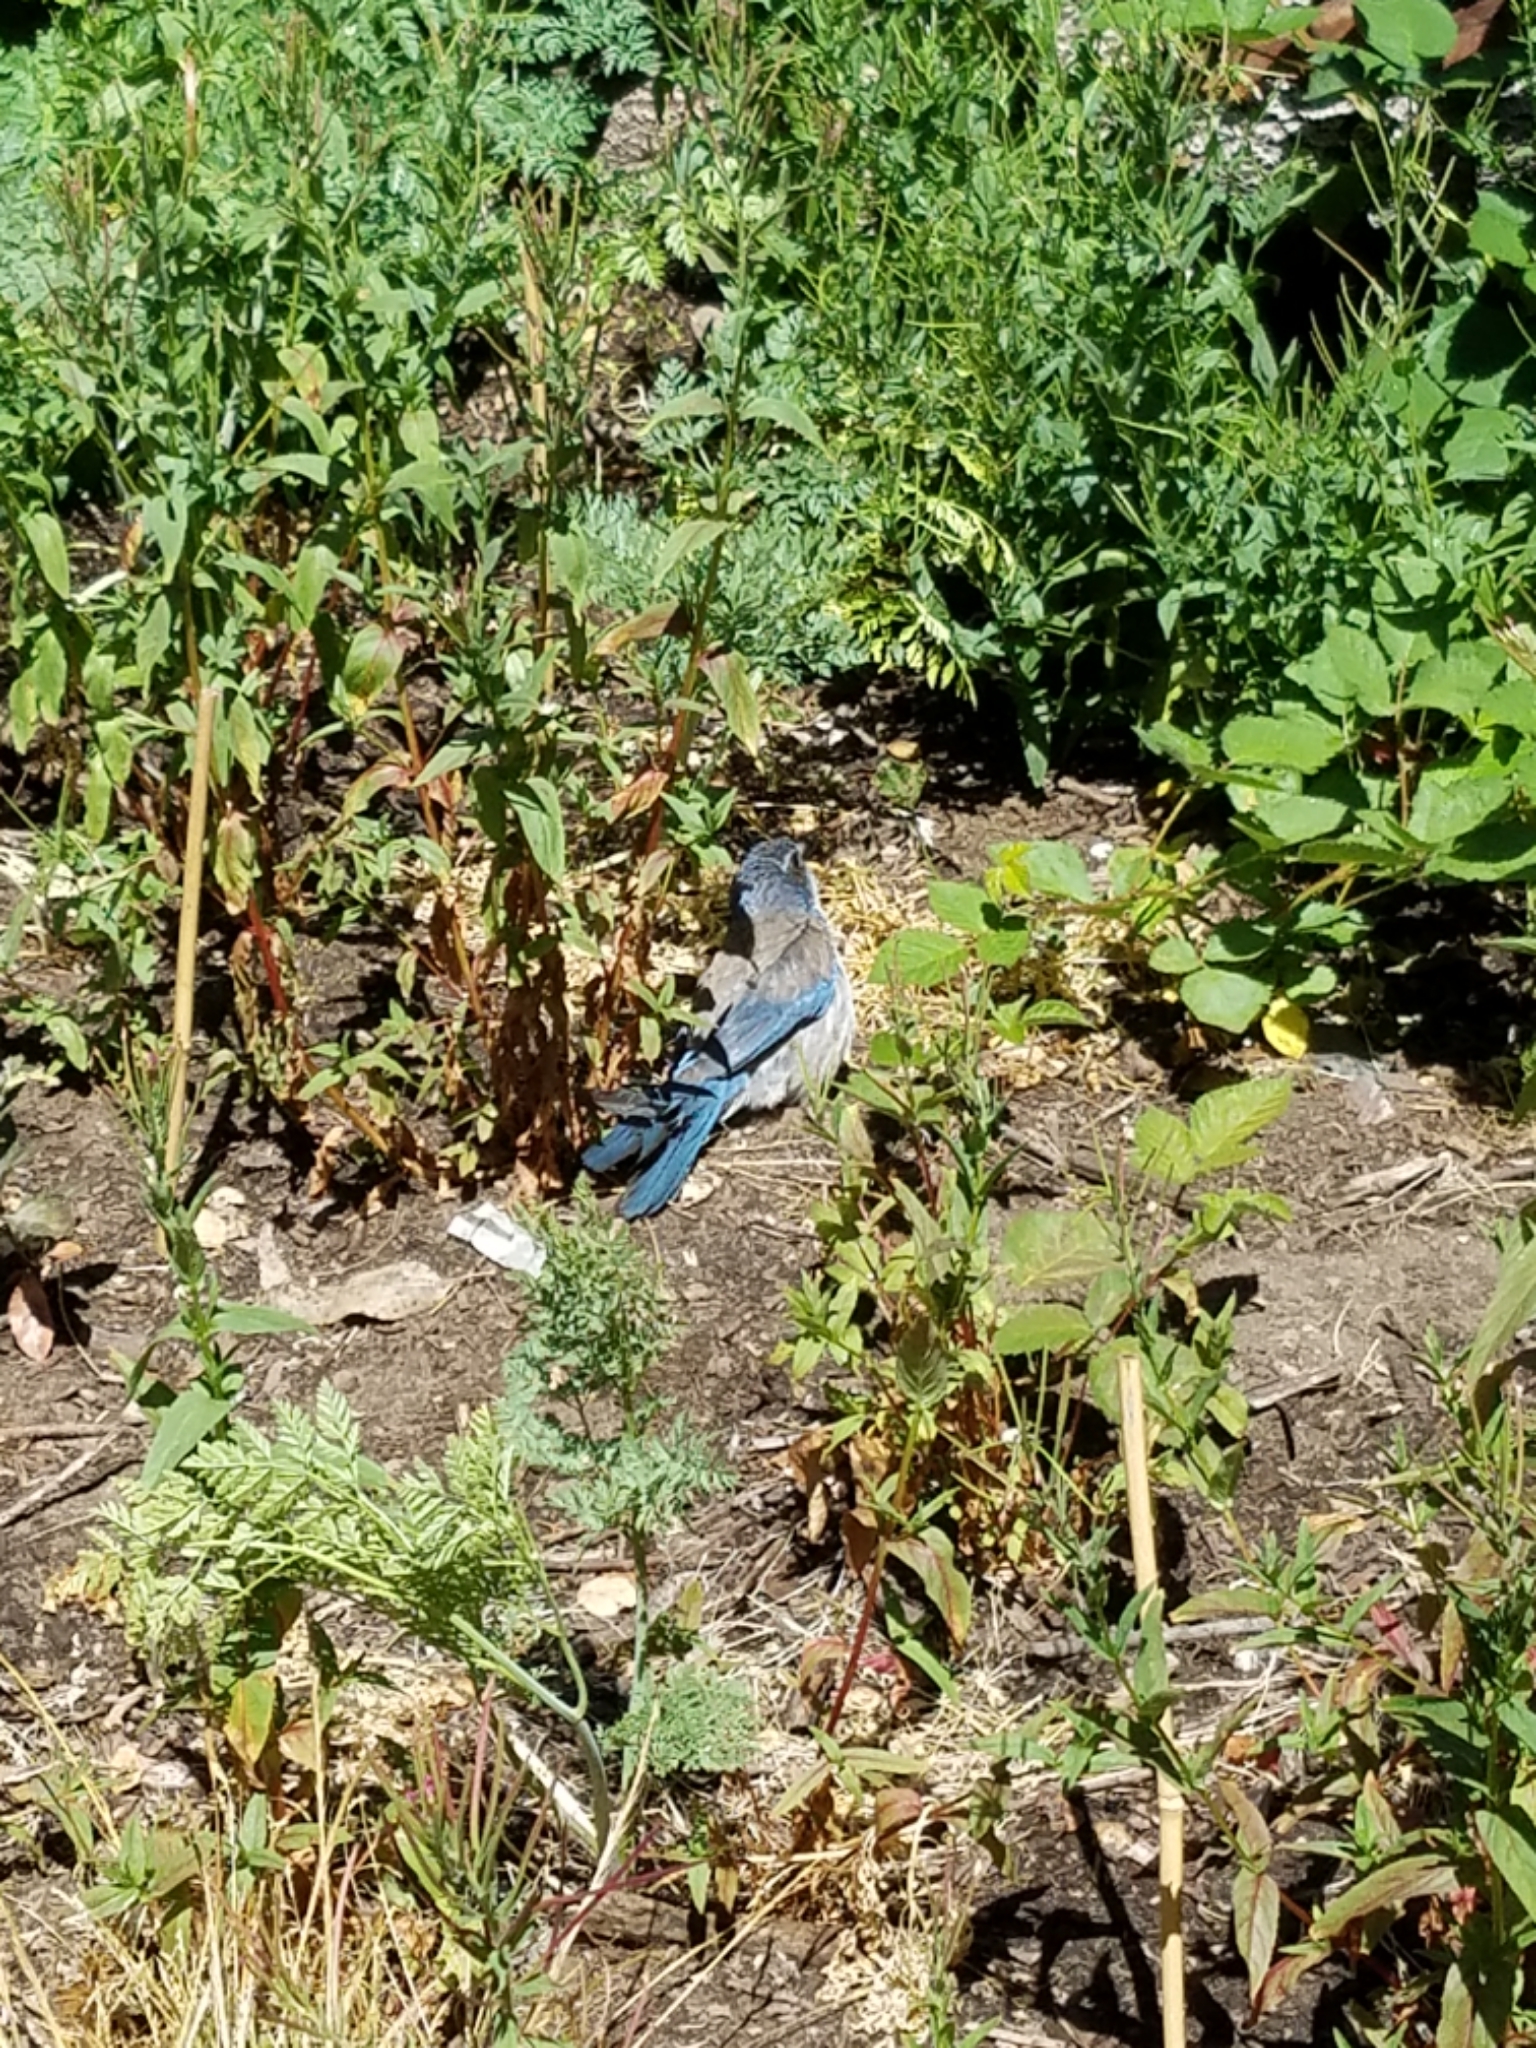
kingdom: Animalia
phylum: Chordata
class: Aves
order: Passeriformes
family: Corvidae
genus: Aphelocoma
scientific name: Aphelocoma californica
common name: California scrub-jay
